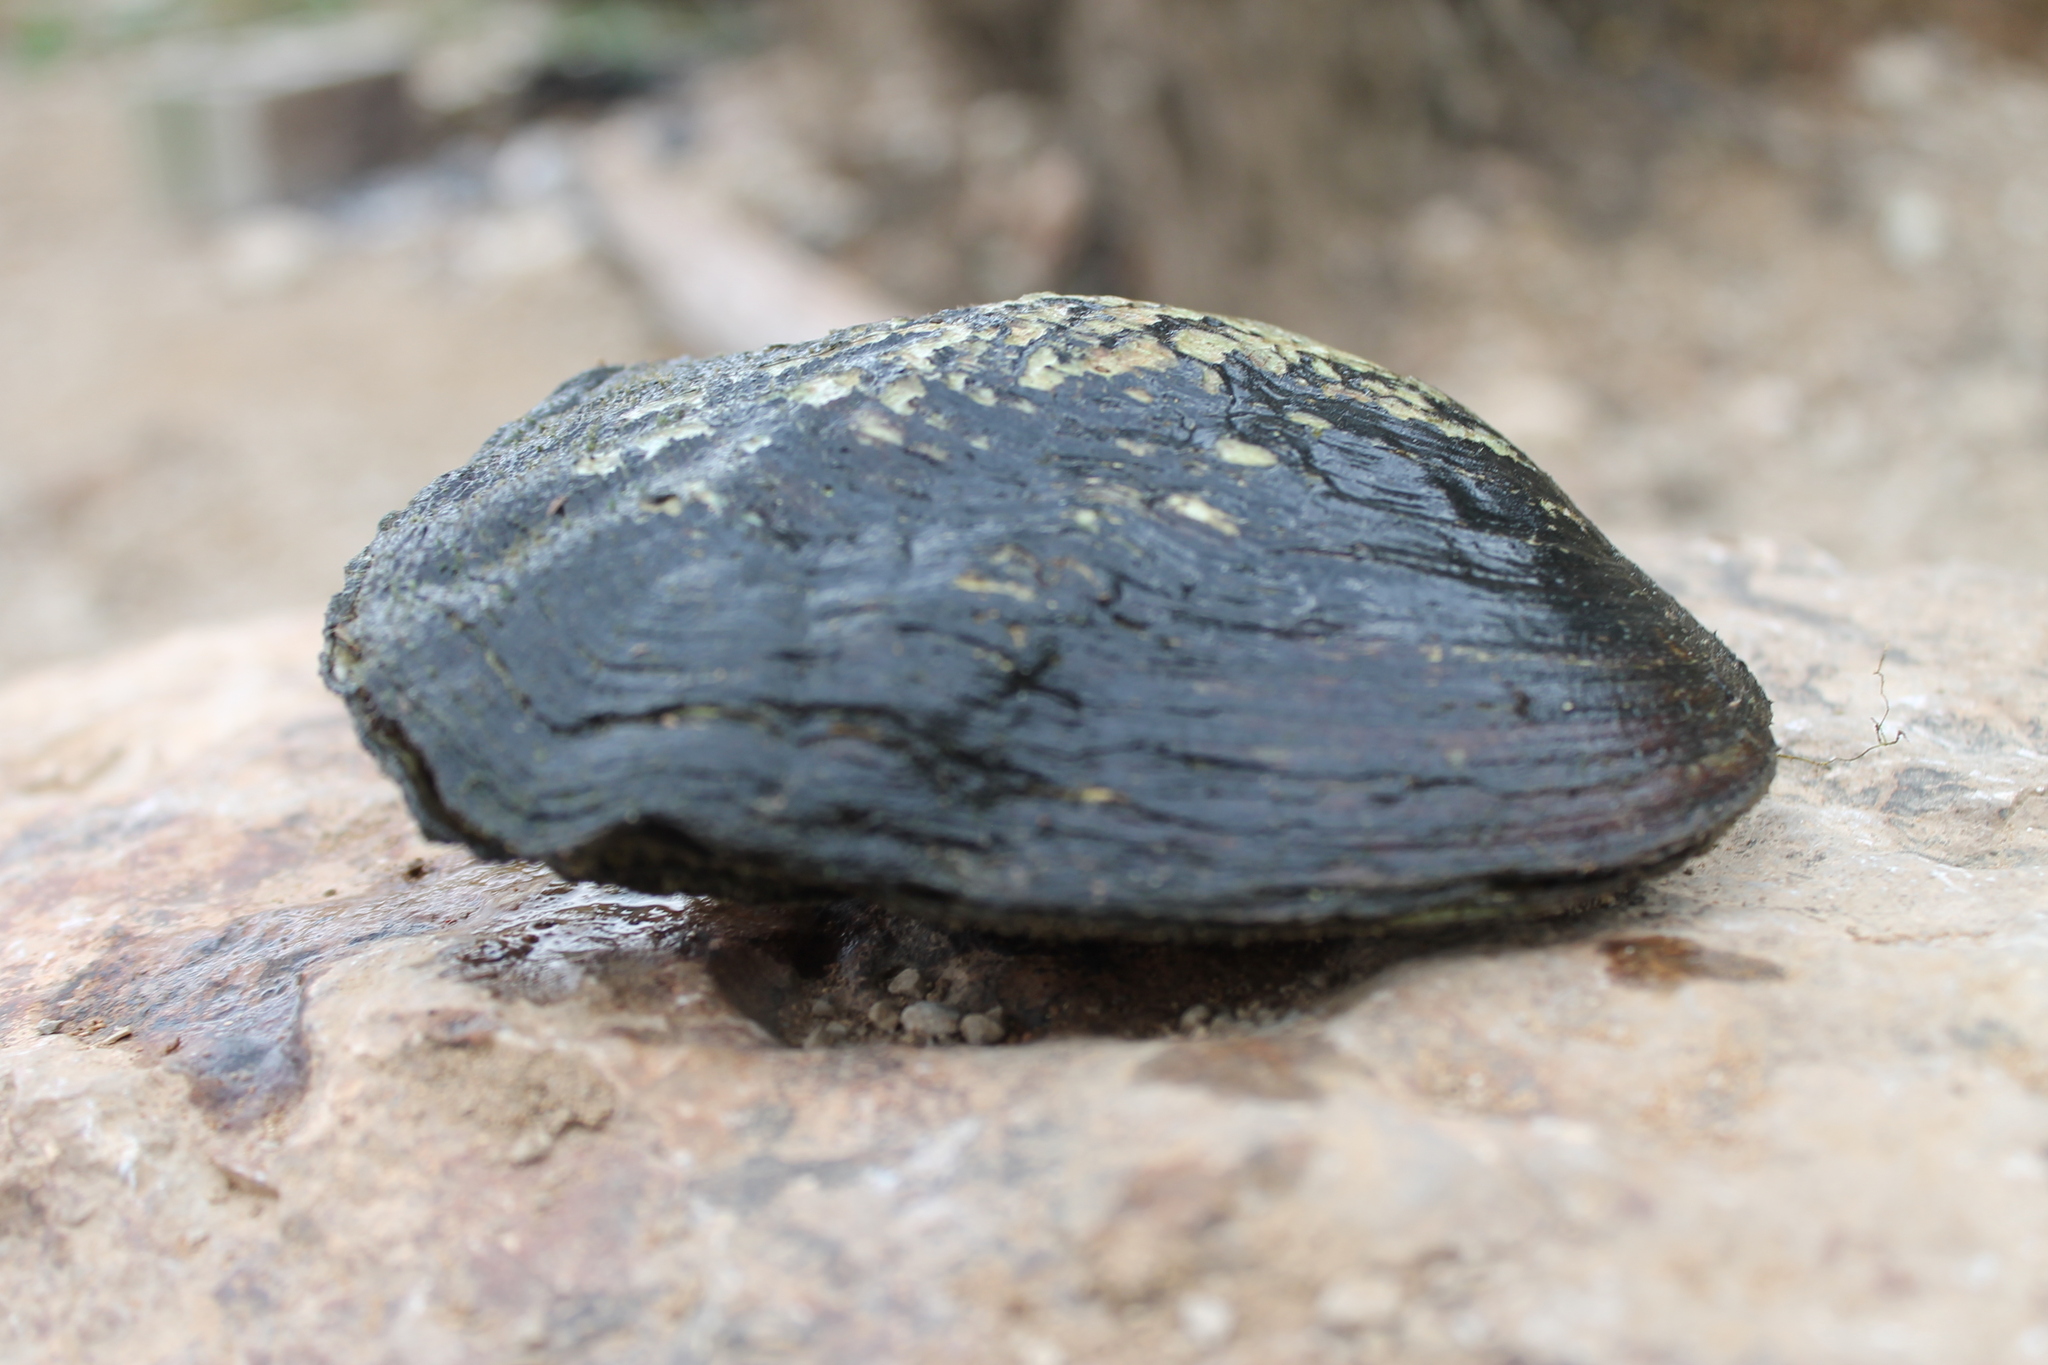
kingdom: Animalia
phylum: Mollusca
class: Bivalvia
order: Unionida
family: Unionidae
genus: Megalonaias
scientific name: Megalonaias nervosa
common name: Washboard
